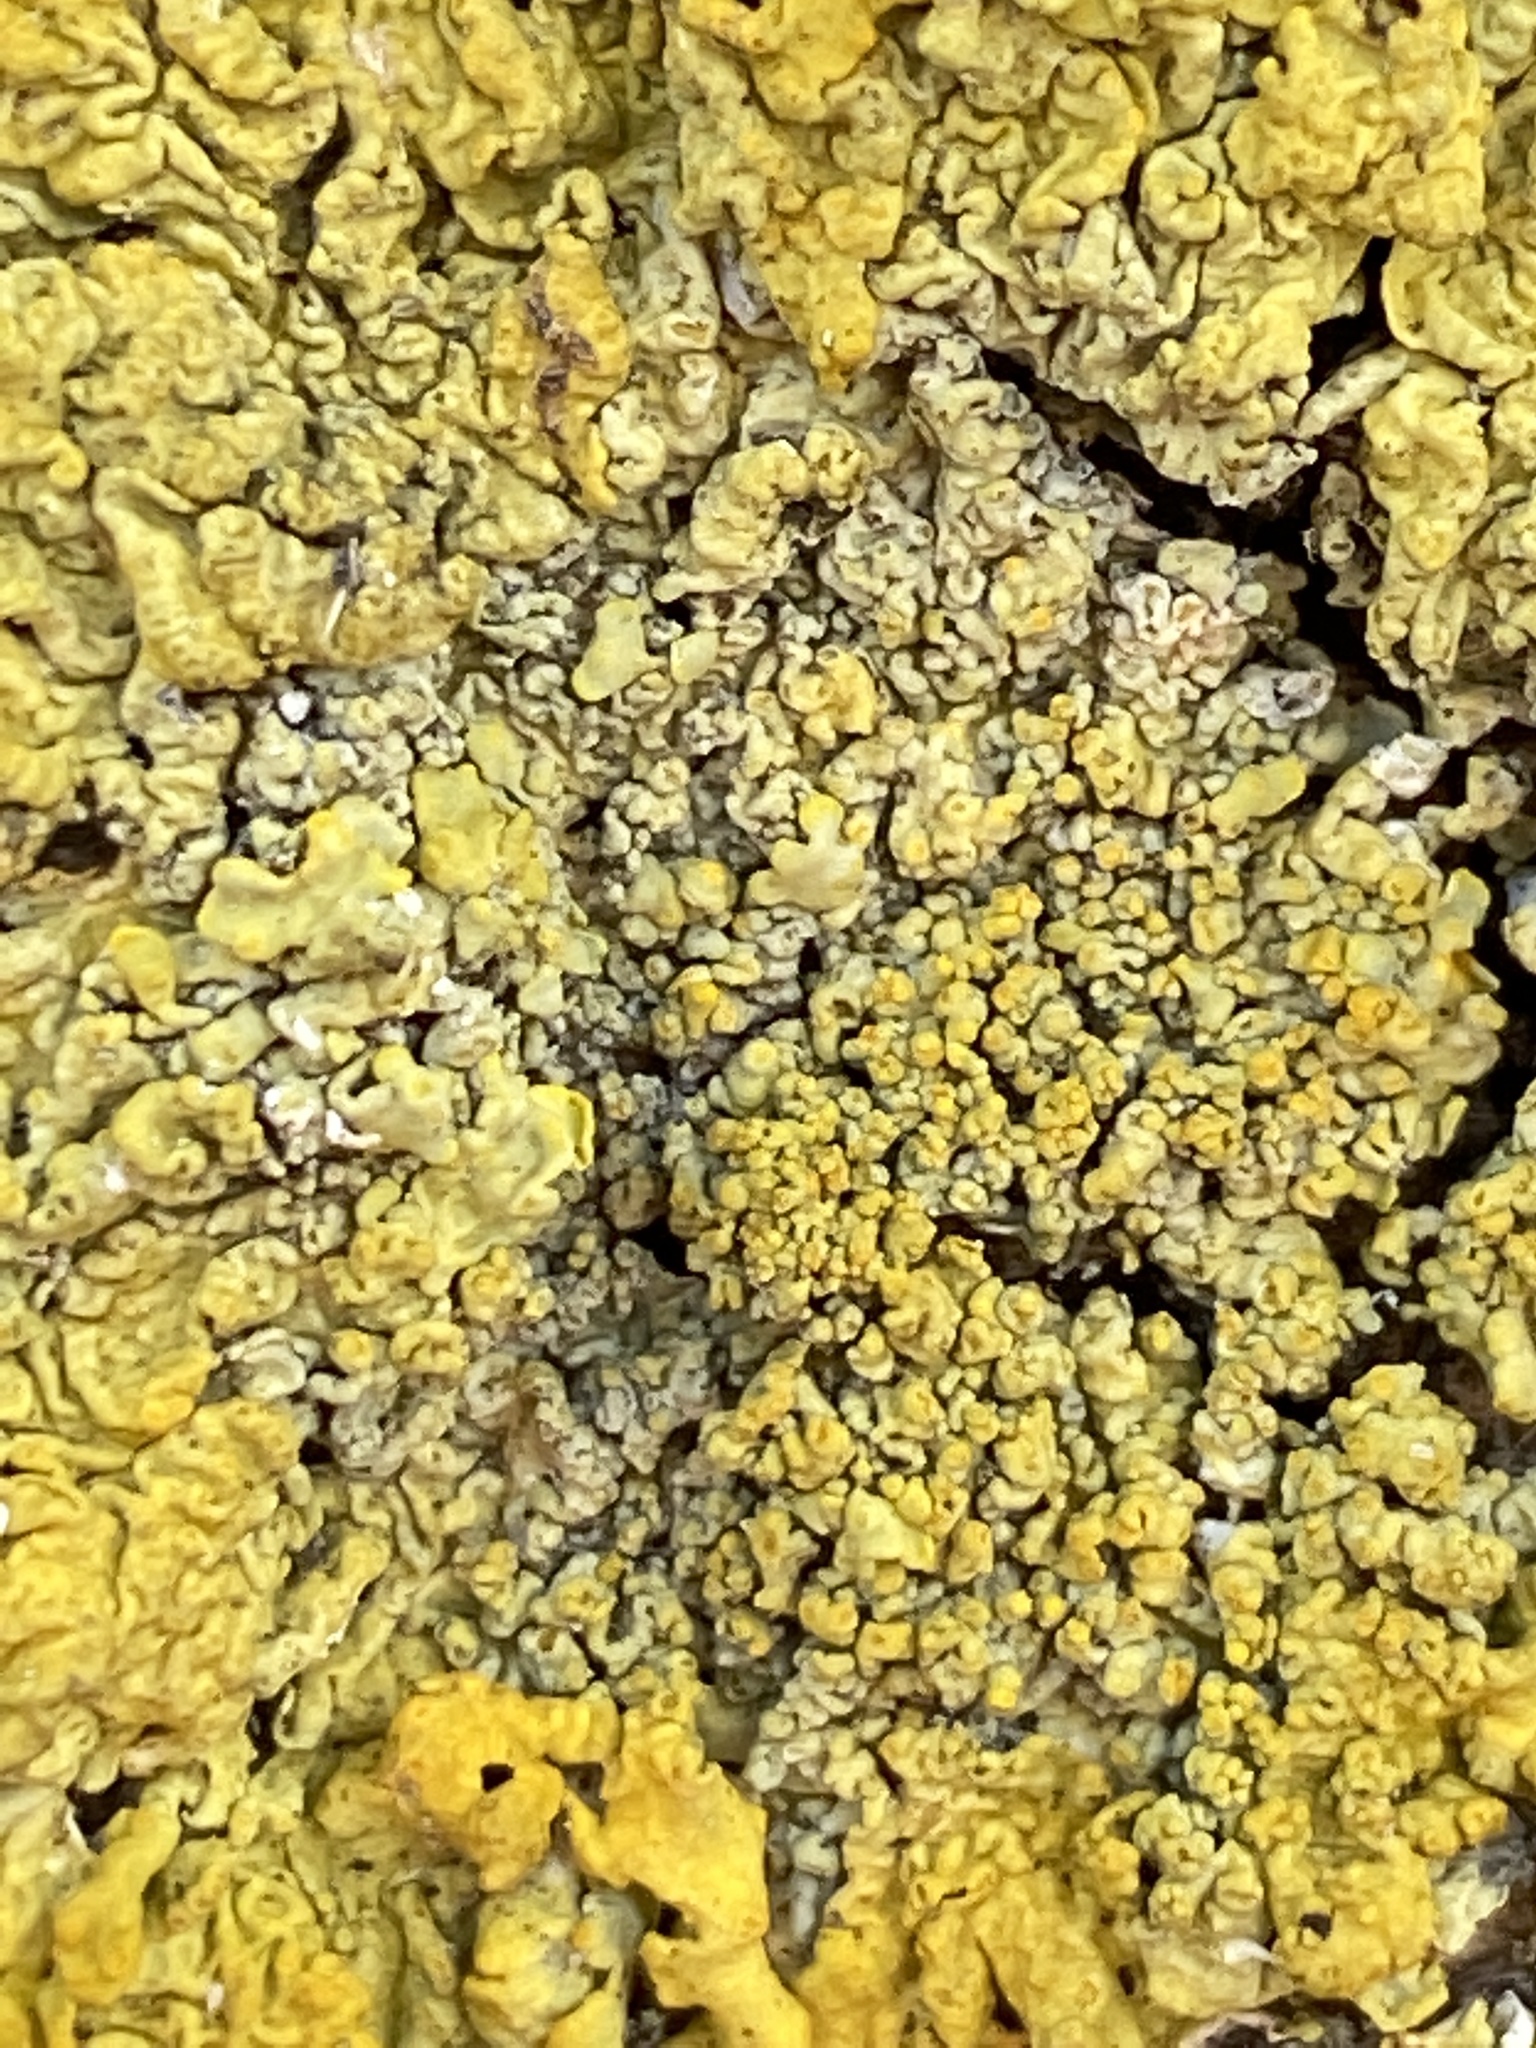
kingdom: Fungi
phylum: Ascomycota
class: Lecanoromycetes
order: Teloschistales
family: Teloschistaceae
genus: Xanthoria
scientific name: Xanthoria parietina
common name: Common orange lichen
